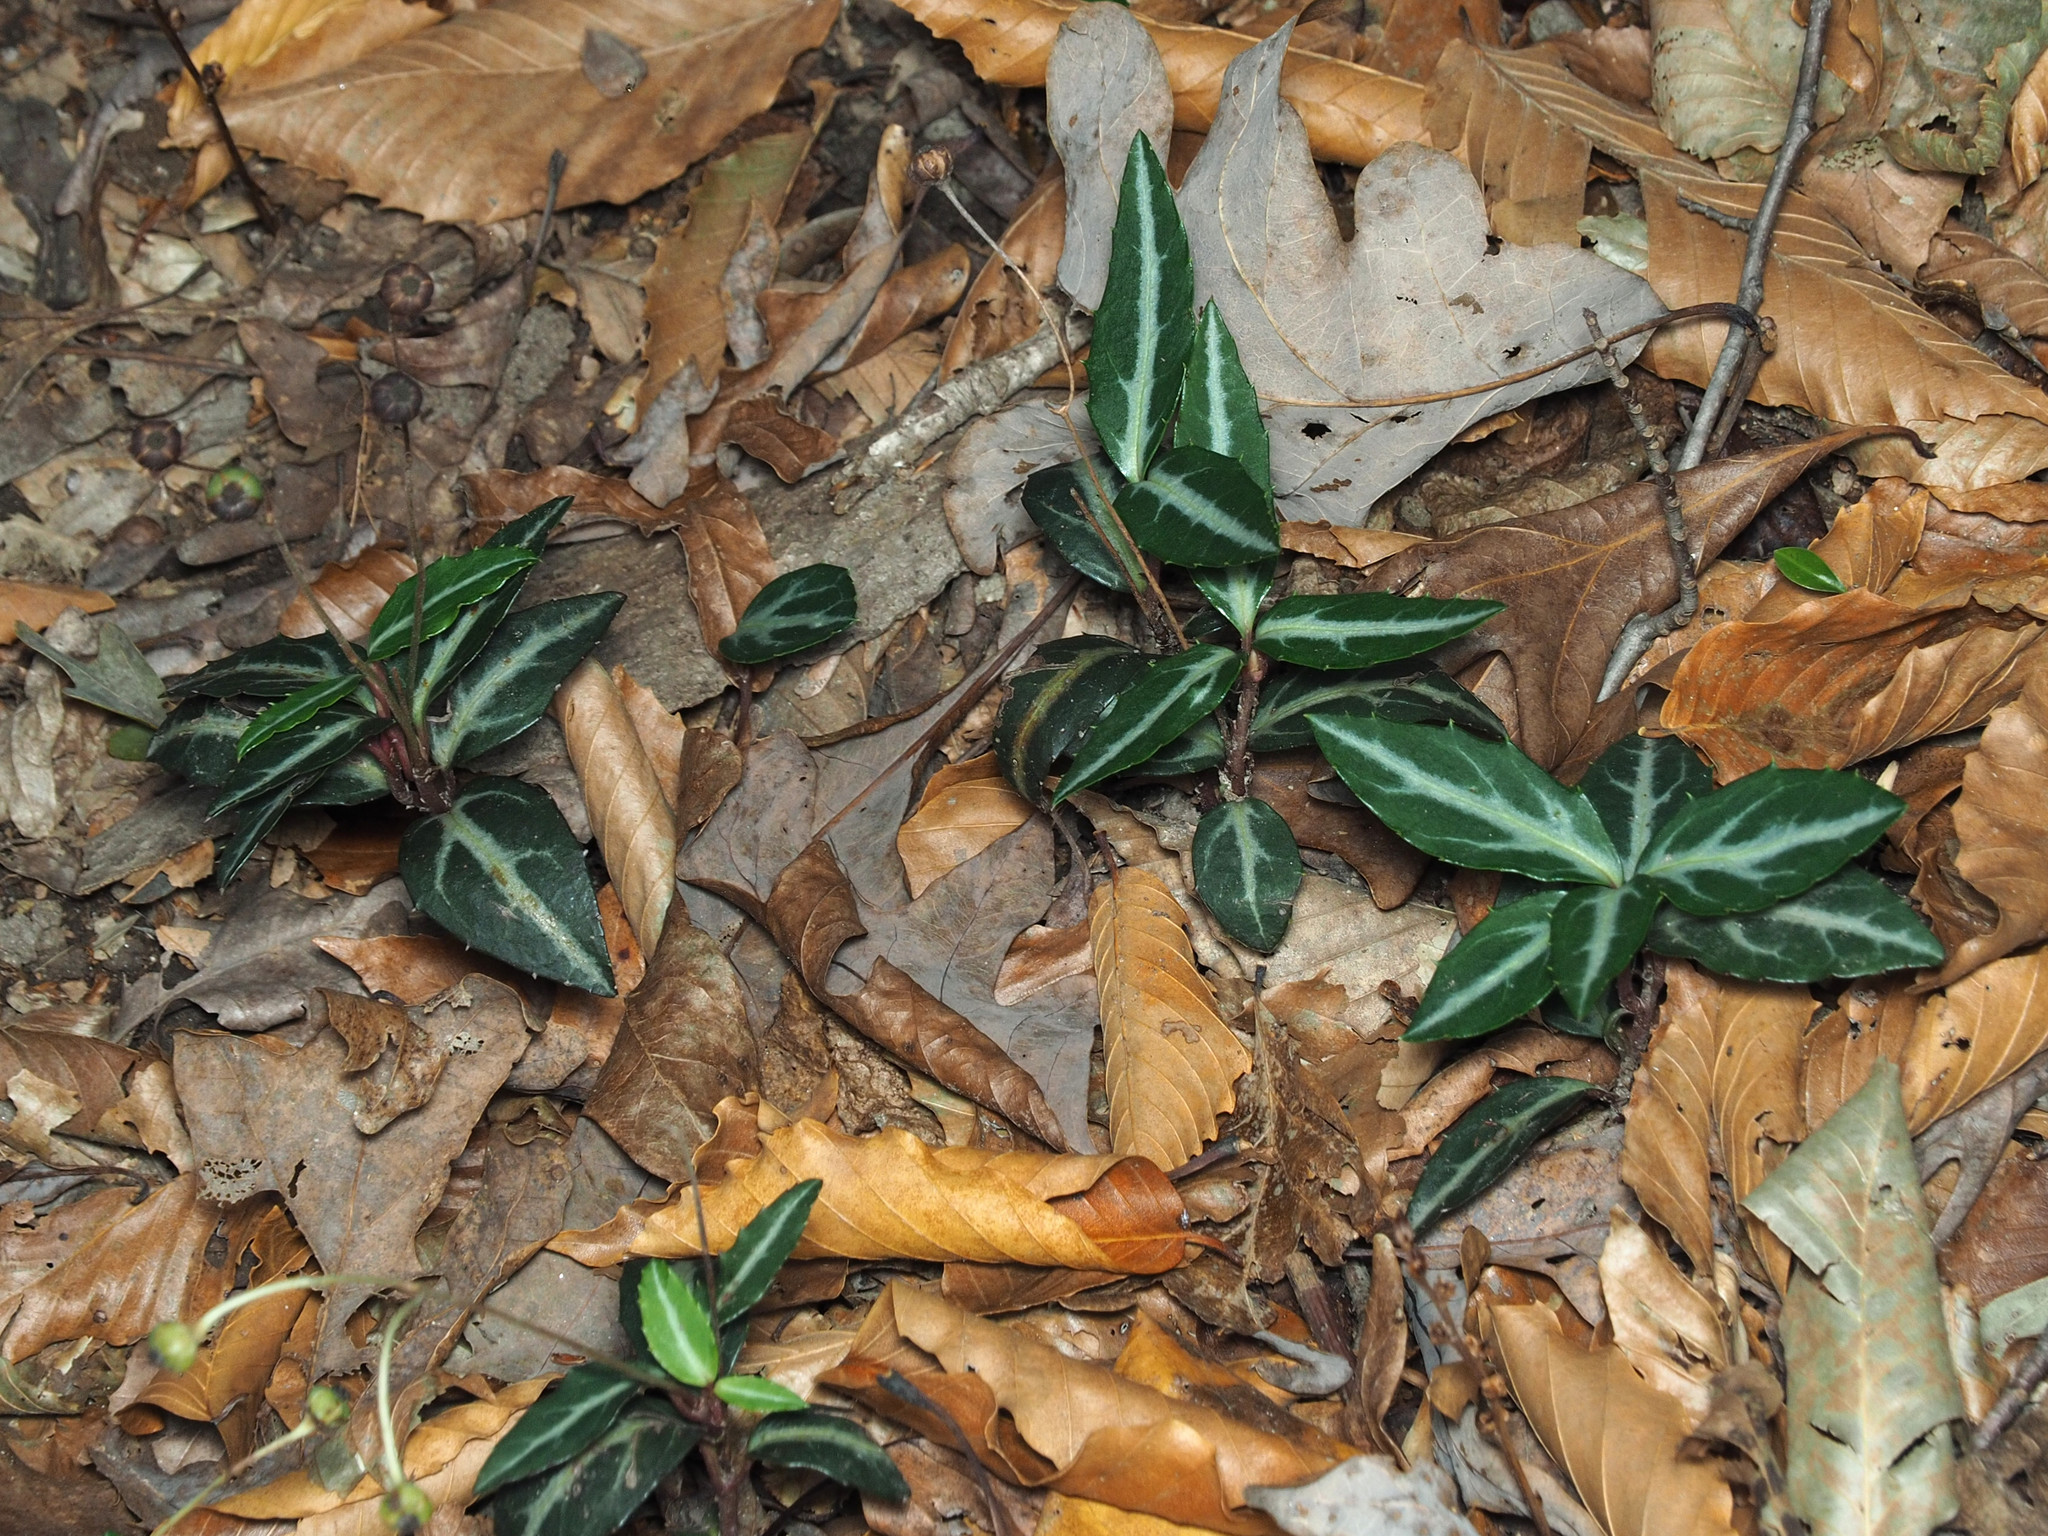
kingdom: Plantae
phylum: Tracheophyta
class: Magnoliopsida
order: Ericales
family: Ericaceae
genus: Chimaphila
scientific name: Chimaphila maculata
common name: Spotted pipsissewa
